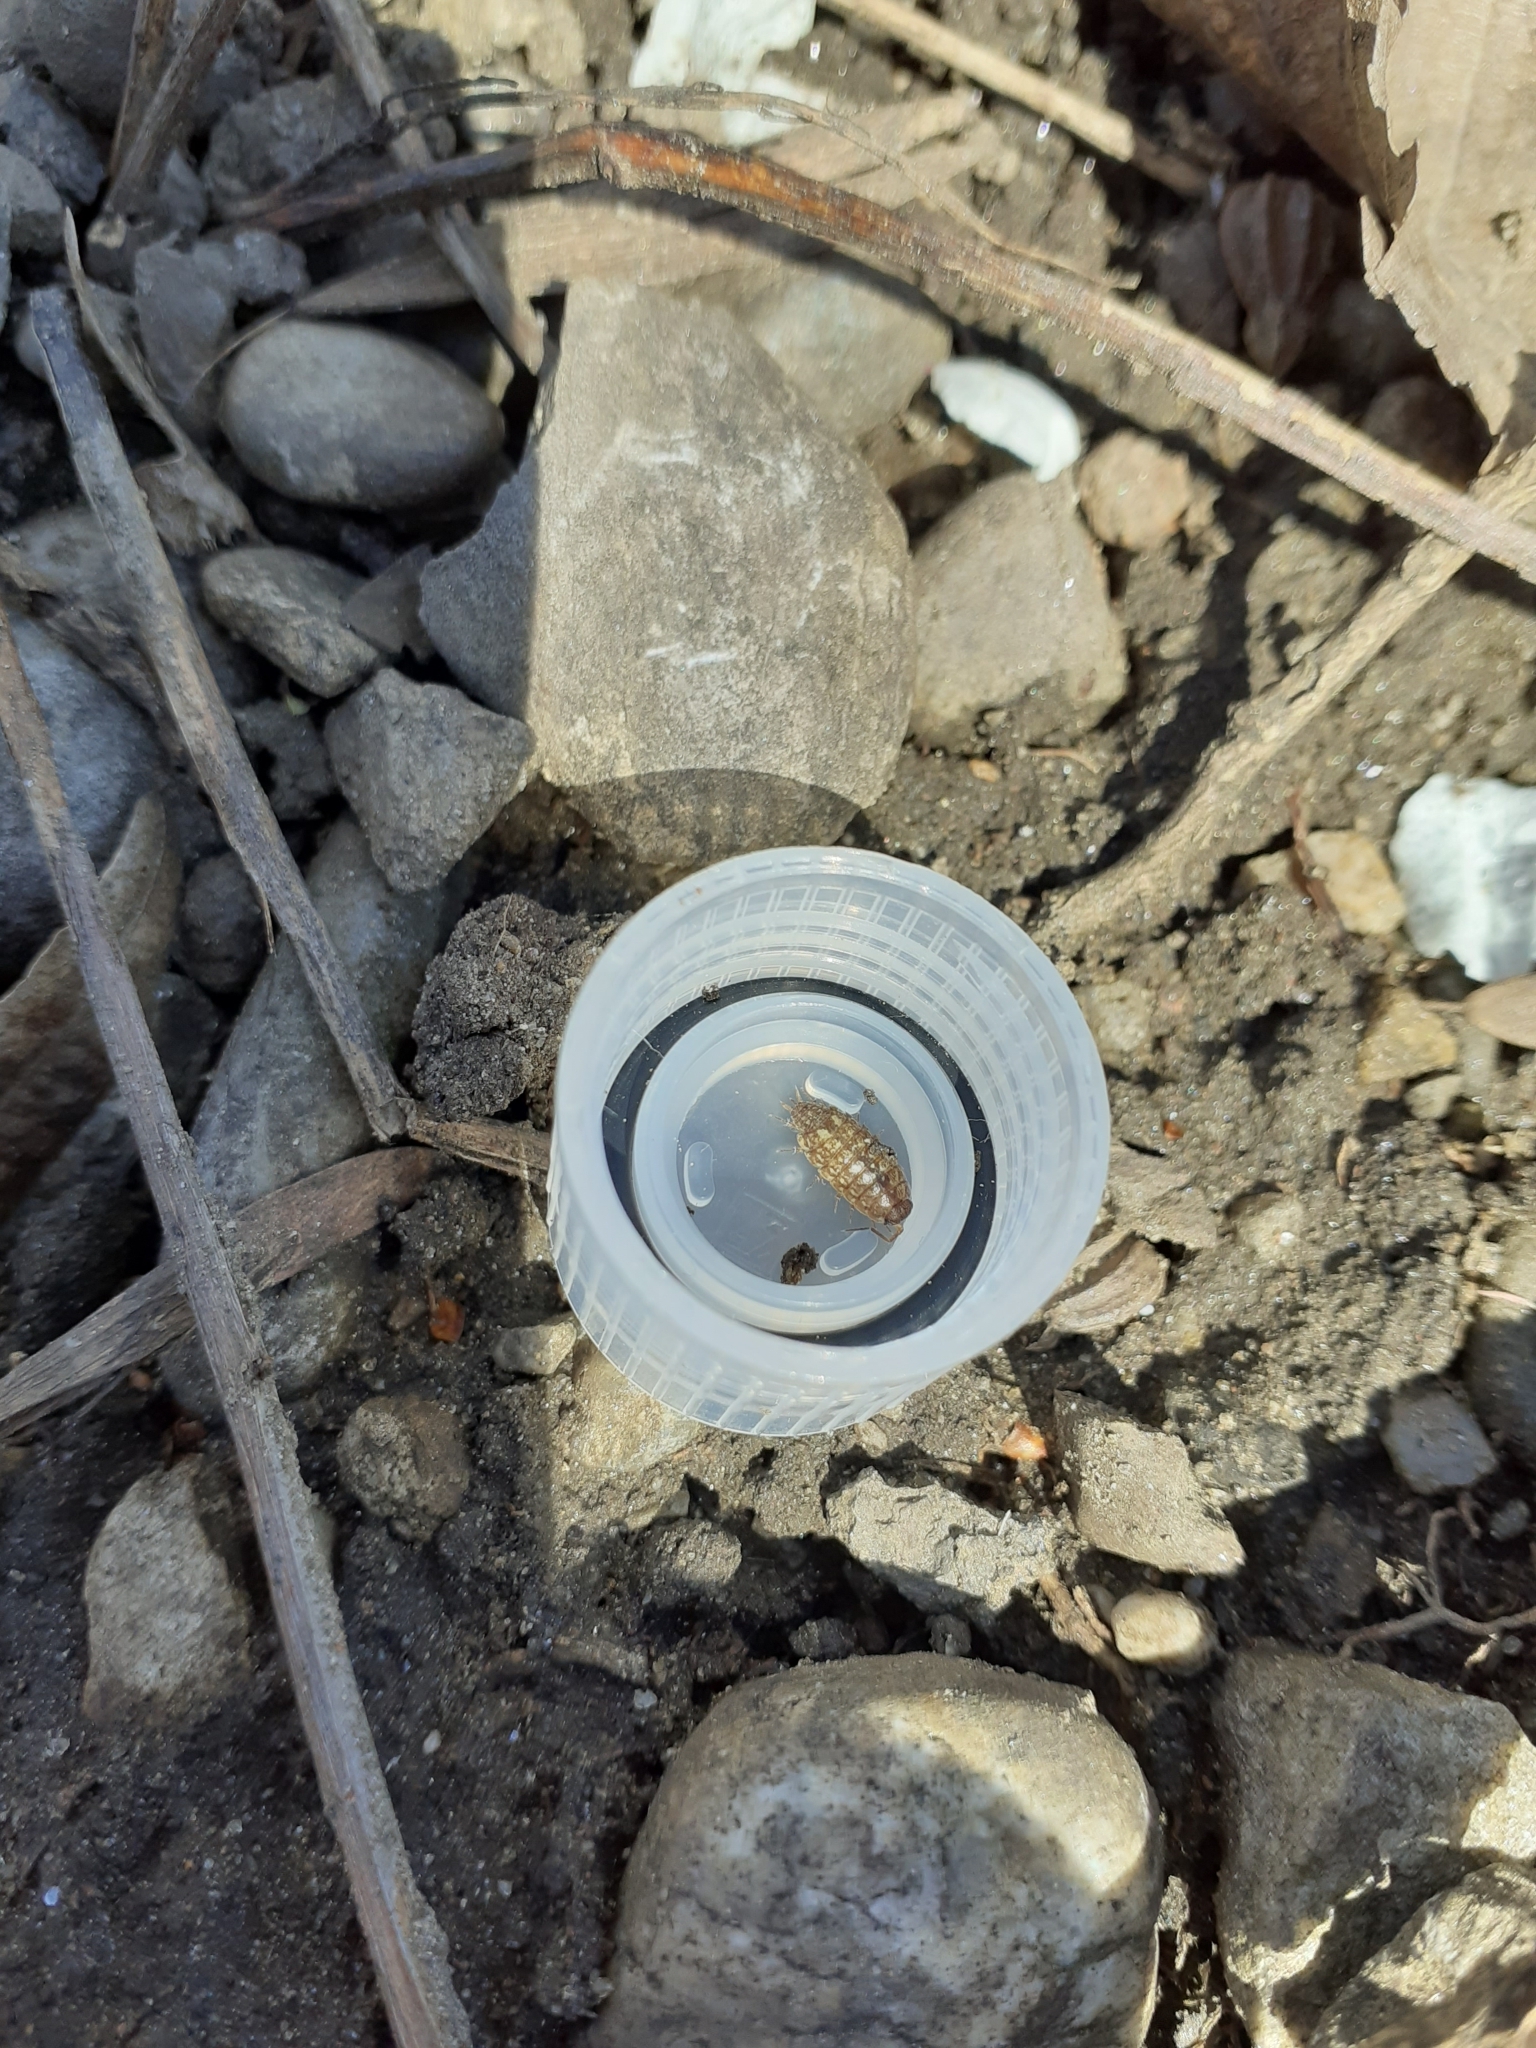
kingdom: Animalia
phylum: Arthropoda
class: Malacostraca
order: Isopoda
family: Philosciidae
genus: Philoscia
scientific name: Philoscia affinis
